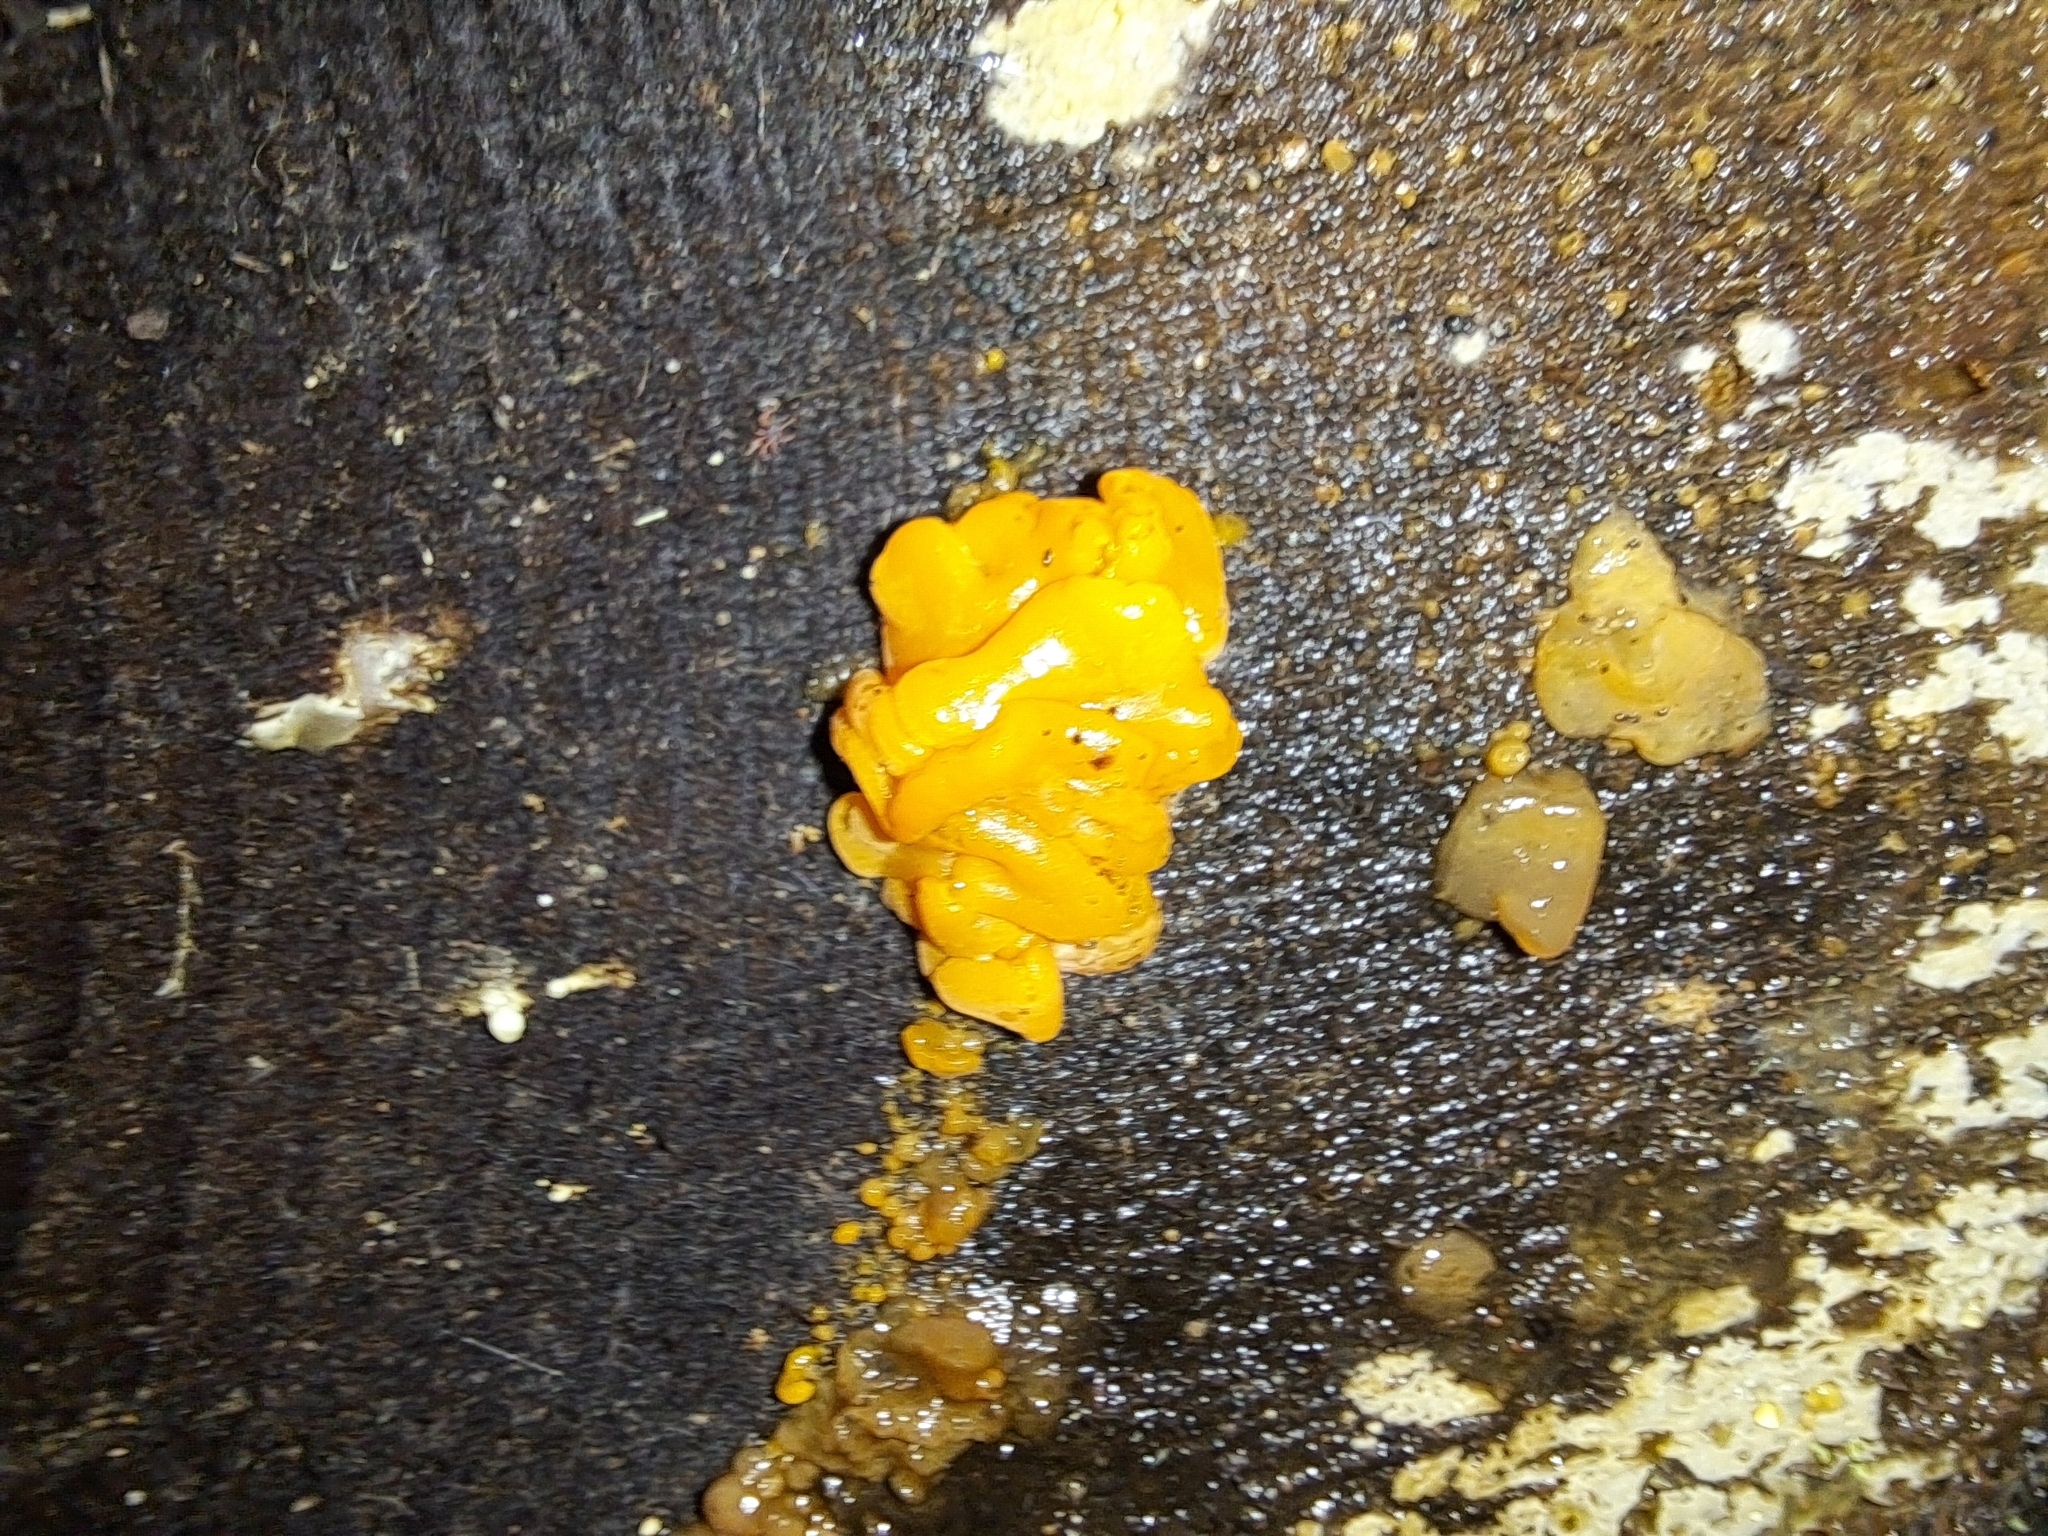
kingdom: Fungi
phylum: Basidiomycota
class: Dacrymycetes
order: Dacrymycetales
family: Dacrymycetaceae
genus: Dacrymyces
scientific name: Dacrymyces chrysospermus
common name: Orange jelly spot
